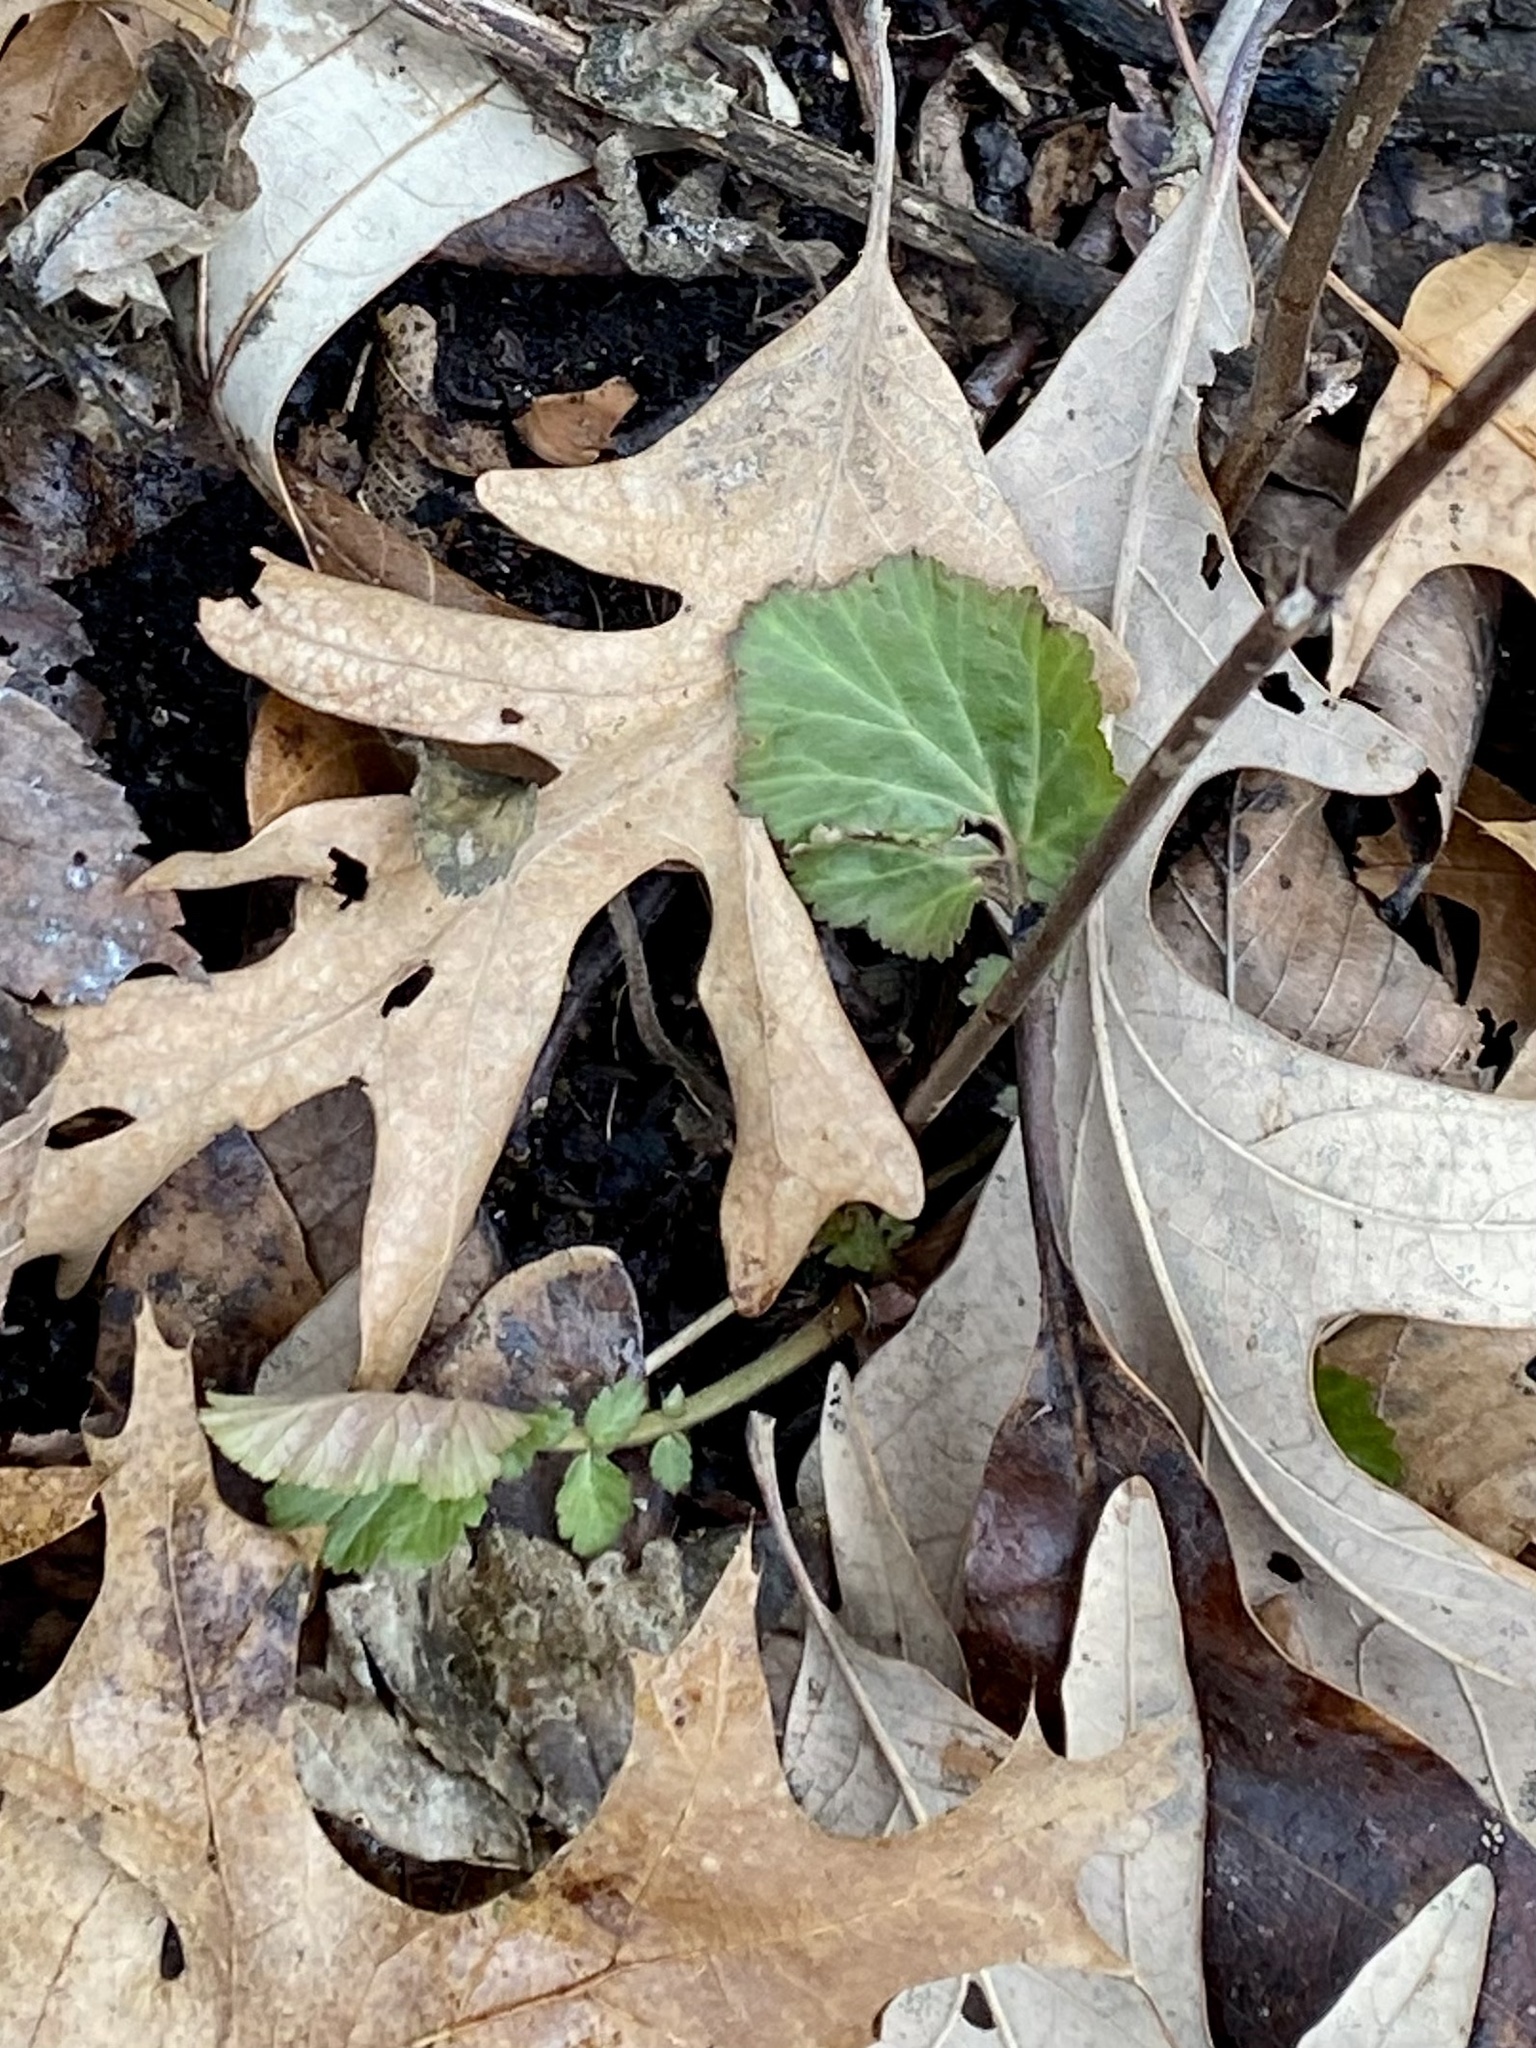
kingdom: Plantae
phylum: Tracheophyta
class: Magnoliopsida
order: Rosales
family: Rosaceae
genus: Geum
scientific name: Geum canadense
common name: White avens
